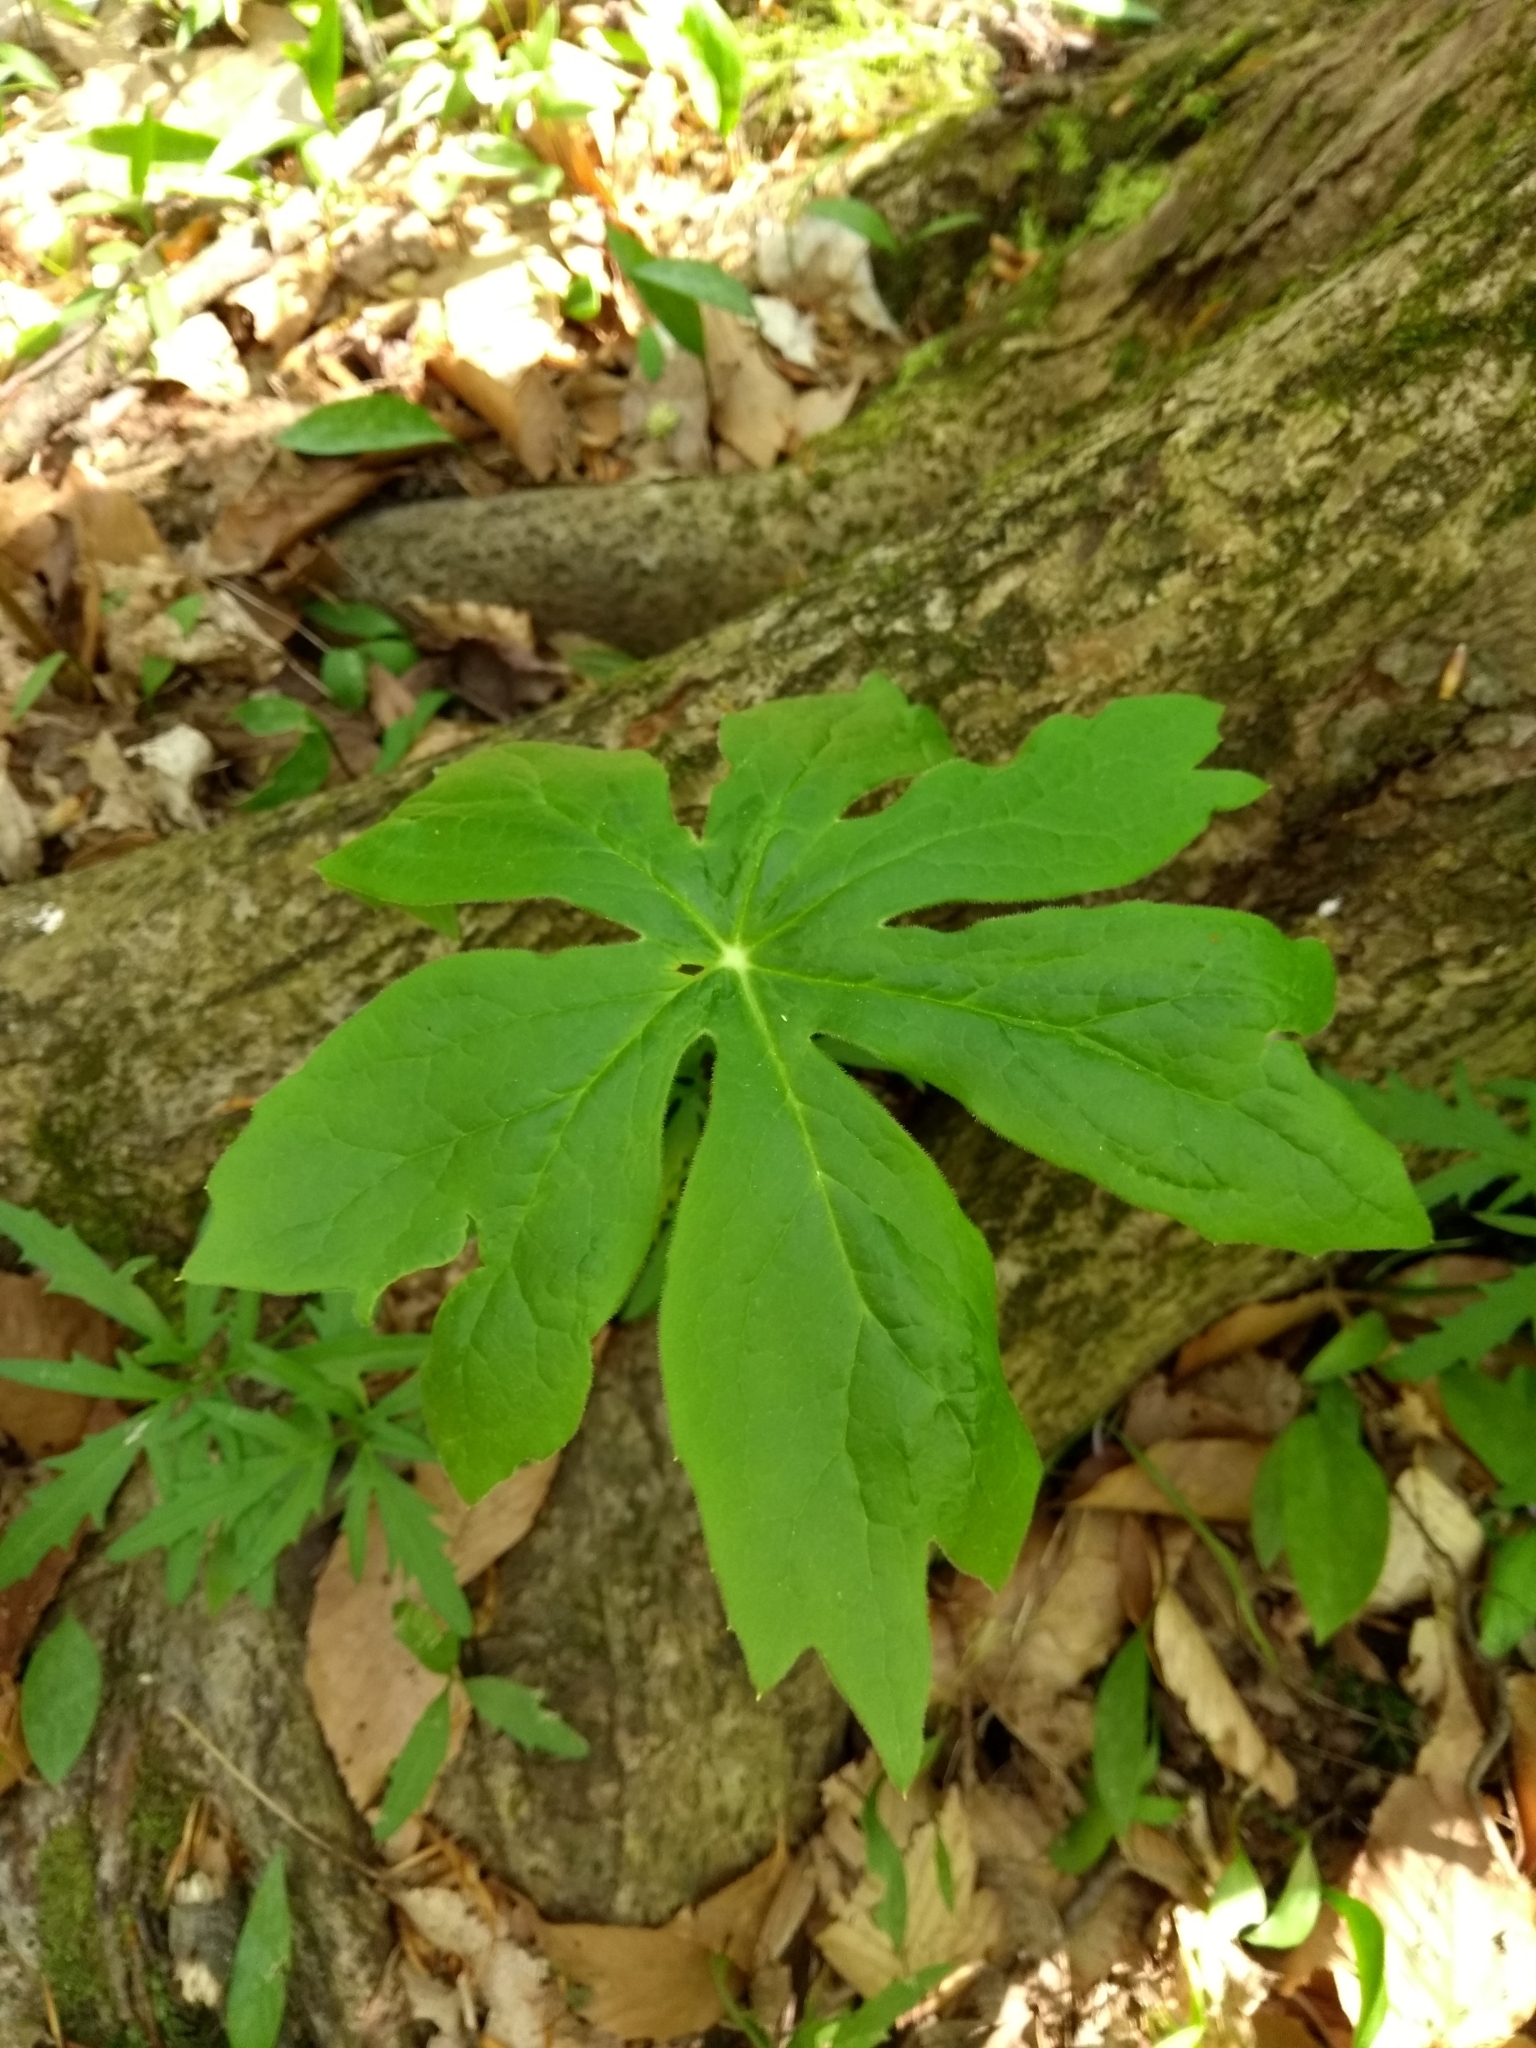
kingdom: Plantae
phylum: Tracheophyta
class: Magnoliopsida
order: Ranunculales
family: Berberidaceae
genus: Podophyllum
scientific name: Podophyllum peltatum
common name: Wild mandrake
